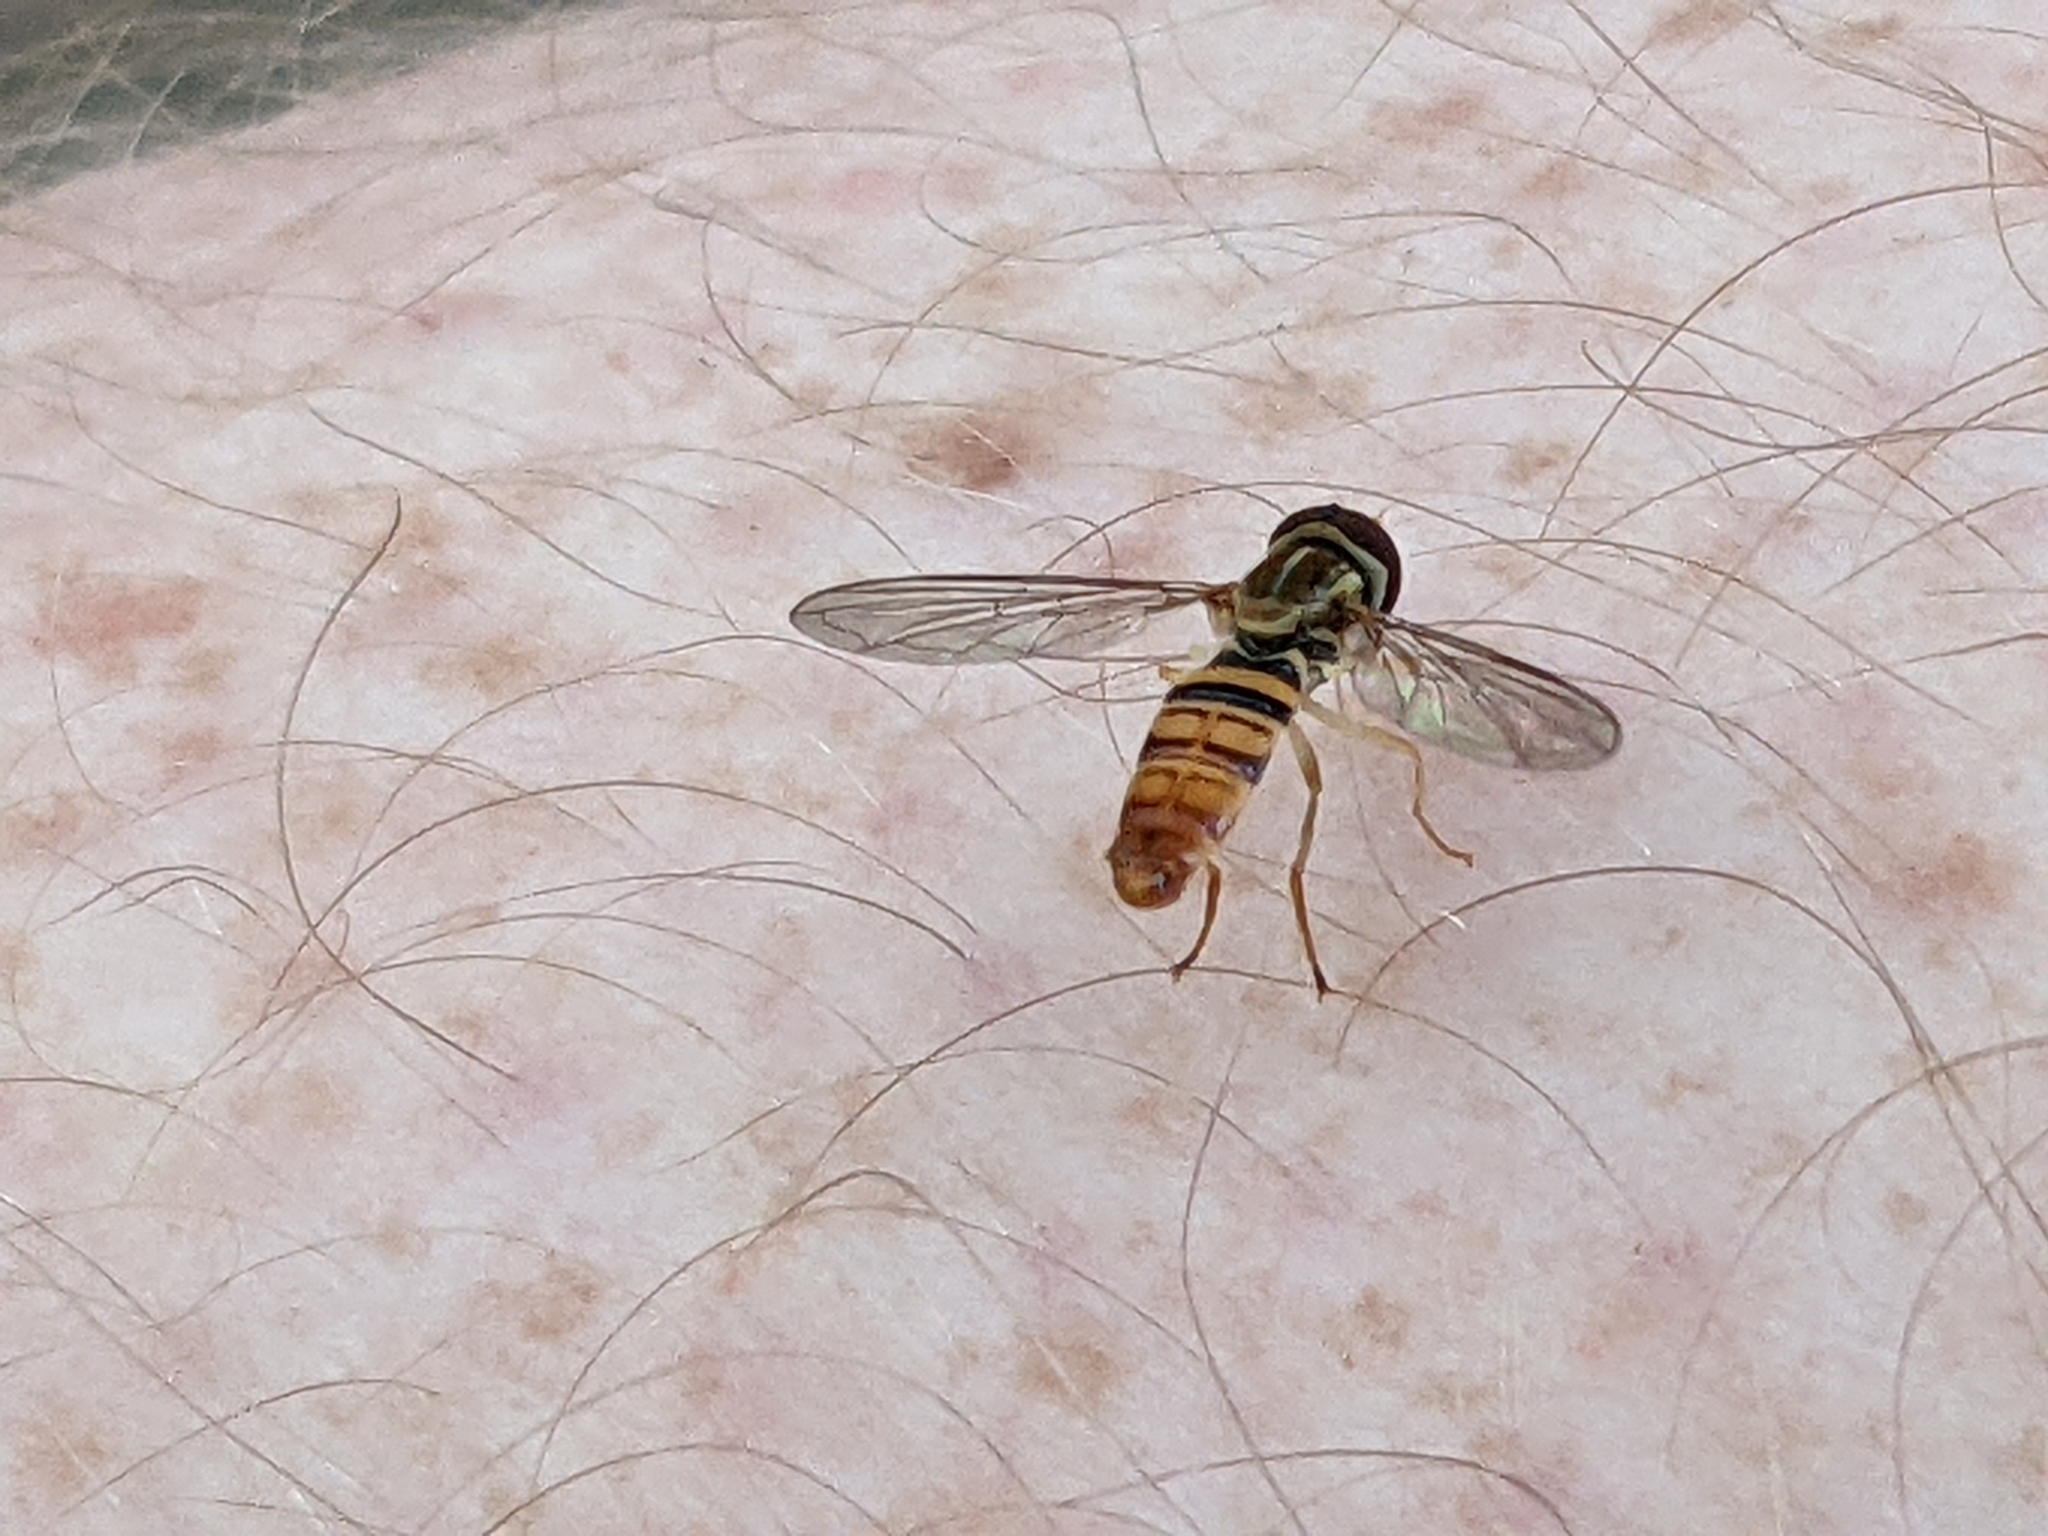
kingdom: Animalia
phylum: Arthropoda
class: Insecta
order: Diptera
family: Syrphidae
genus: Toxomerus
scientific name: Toxomerus politus
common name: Maize calligrapher
